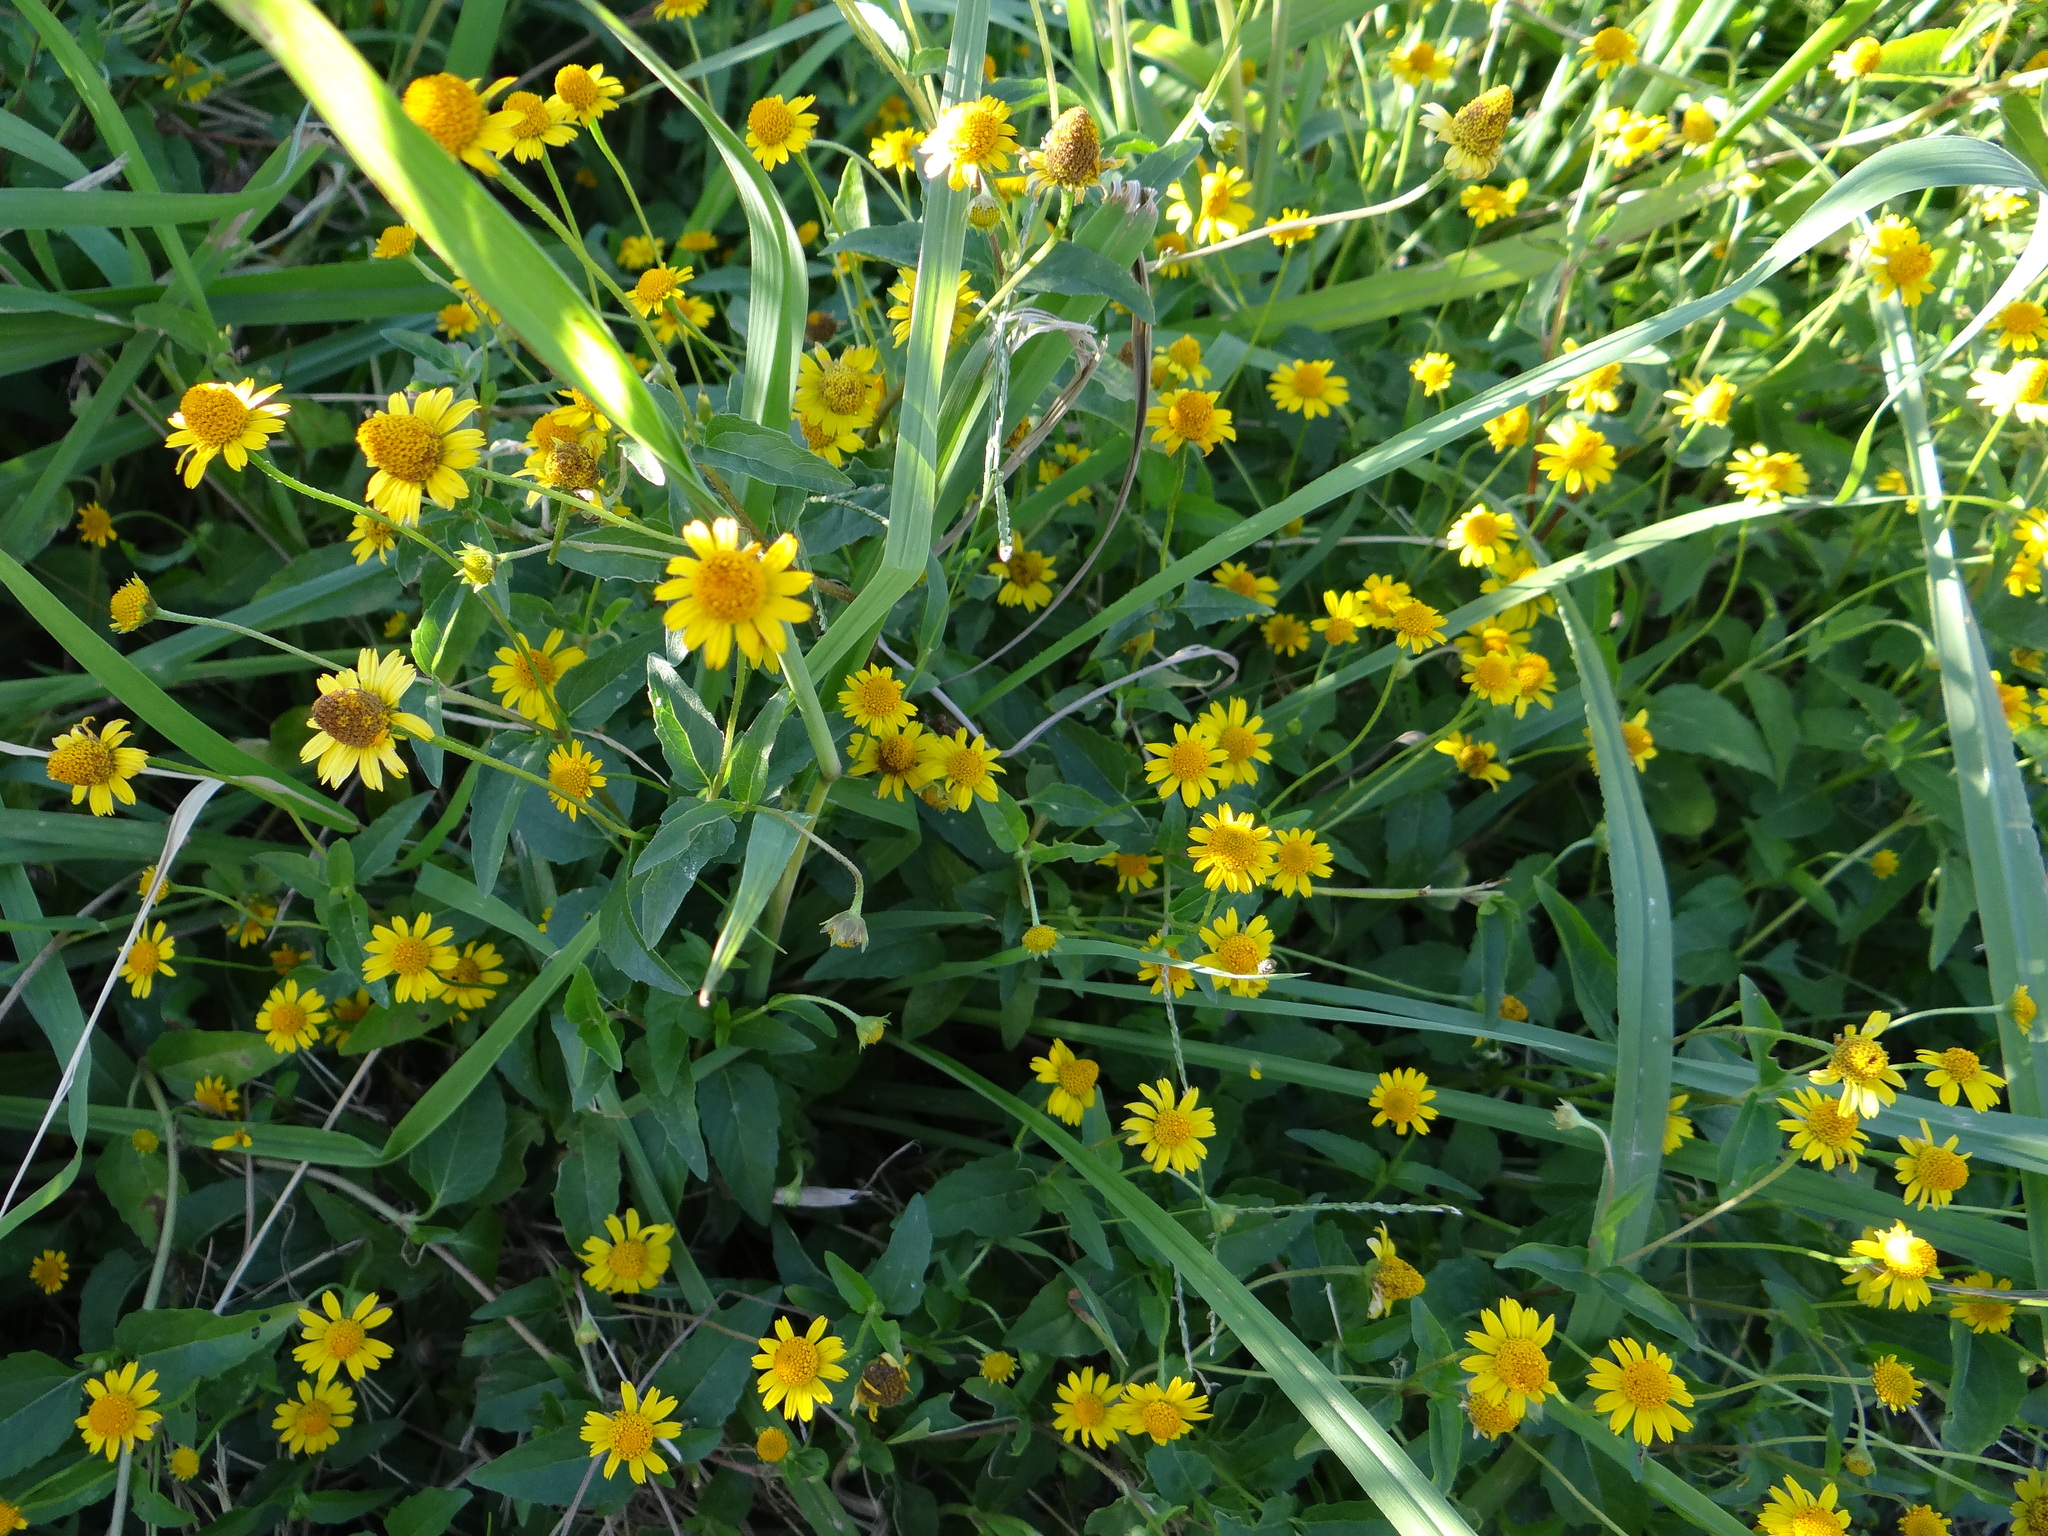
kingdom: Plantae
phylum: Tracheophyta
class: Magnoliopsida
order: Asterales
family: Asteraceae
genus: Acmella
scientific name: Acmella repens
